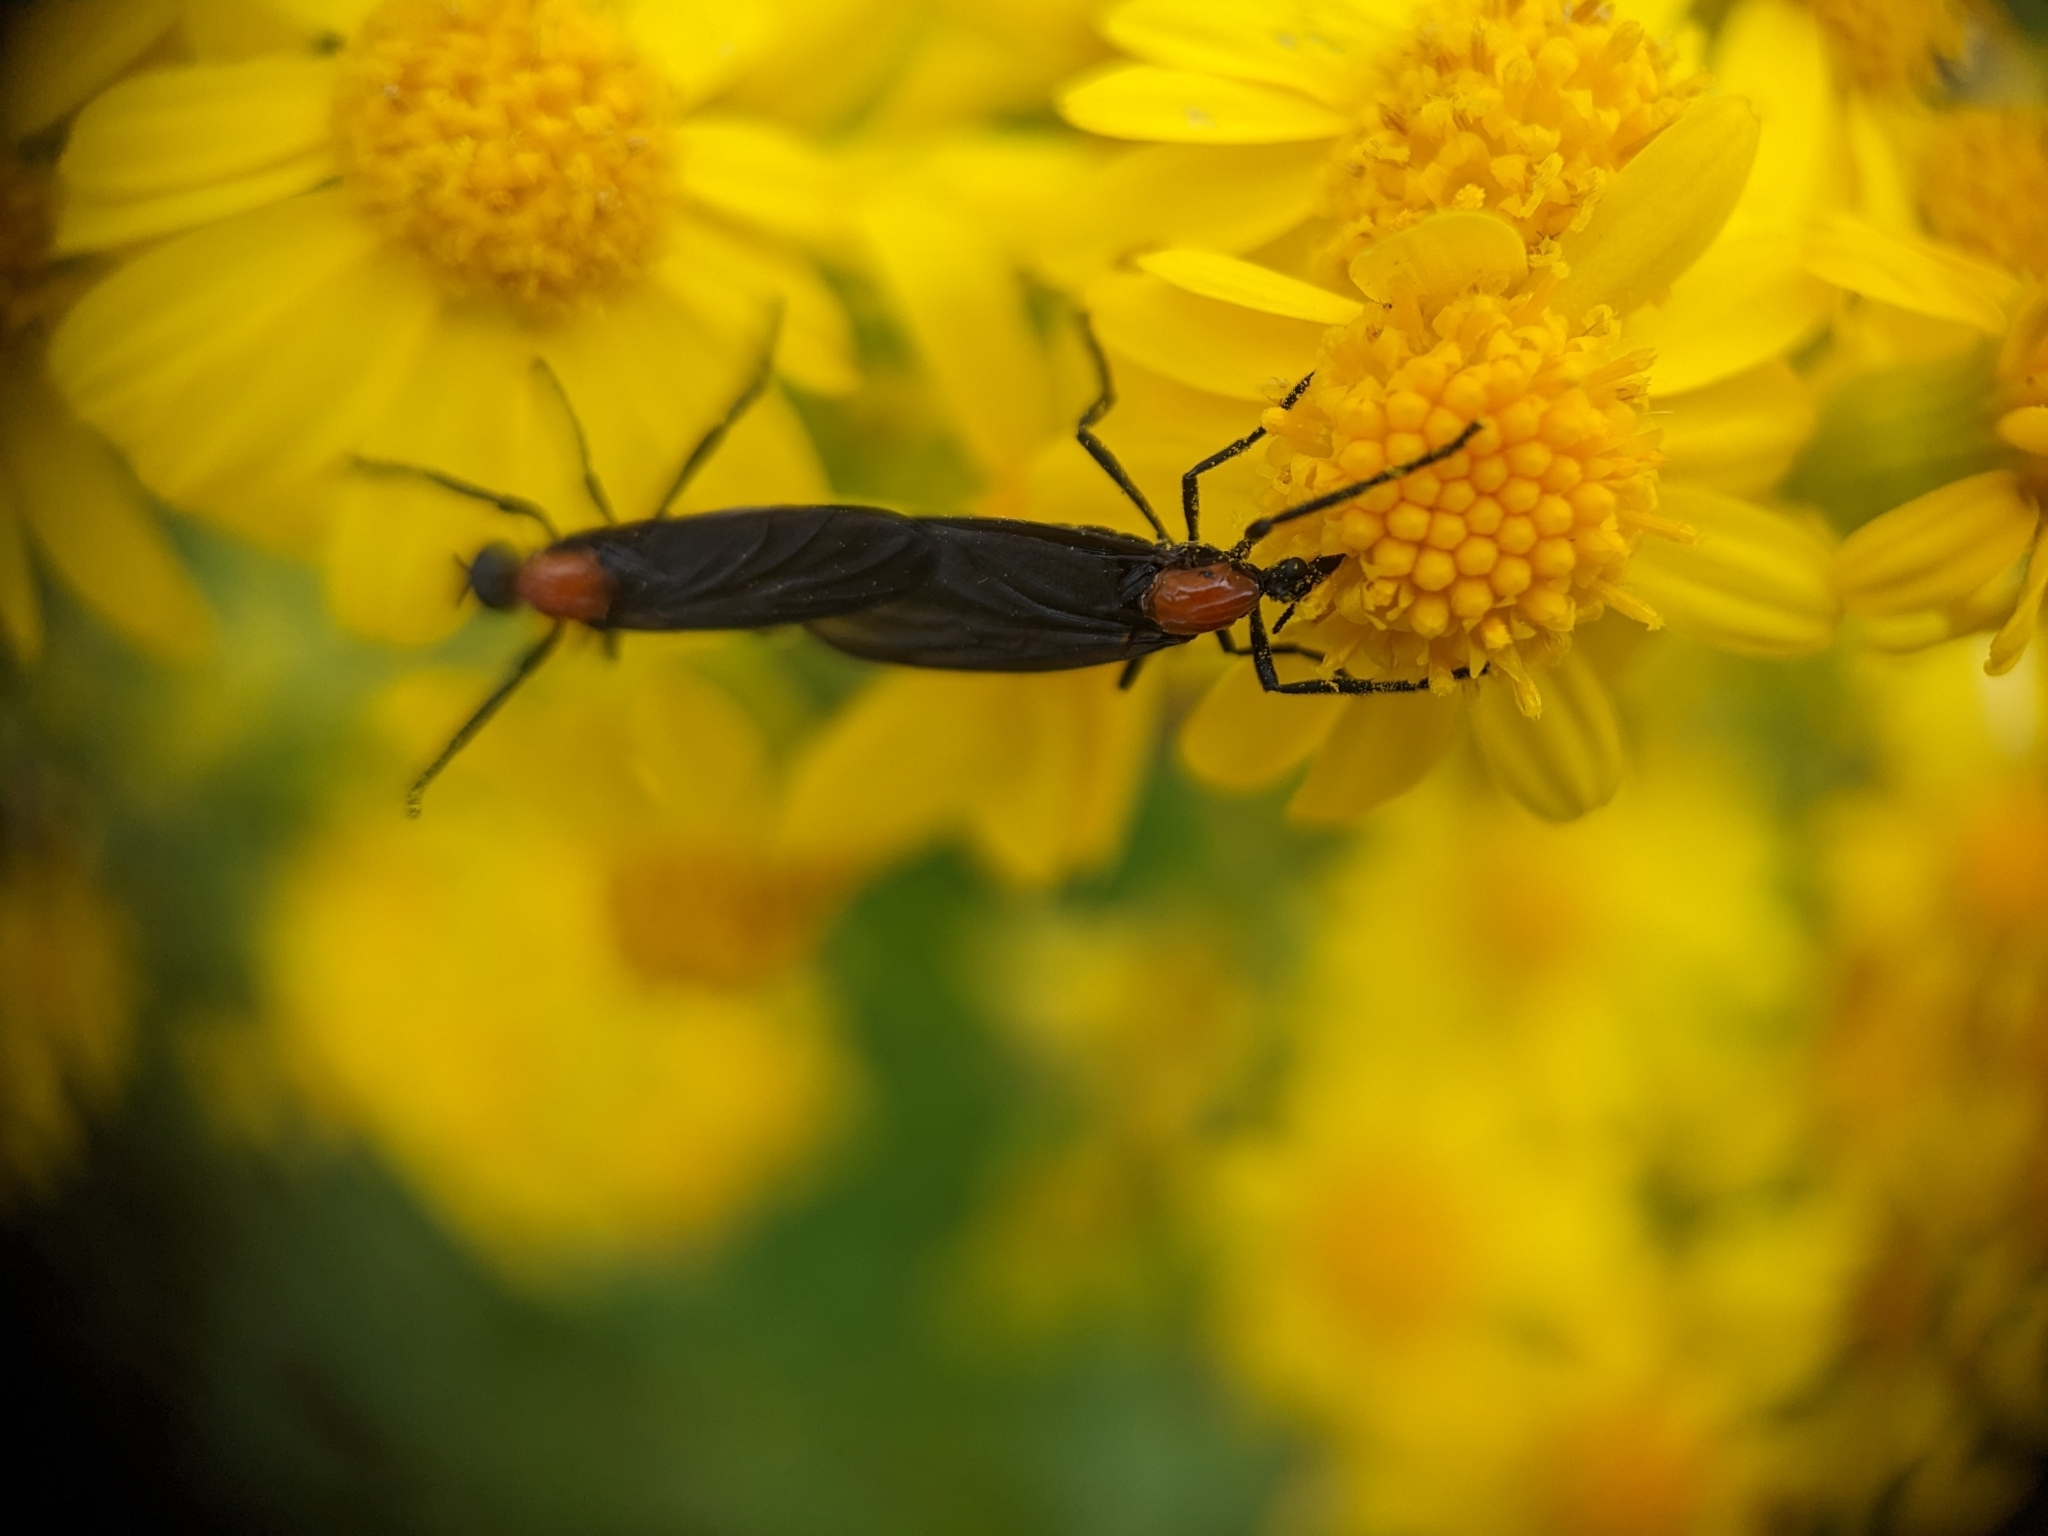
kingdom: Animalia
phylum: Arthropoda
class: Insecta
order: Diptera
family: Bibionidae
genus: Plecia
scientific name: Plecia nearctica
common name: March fly
